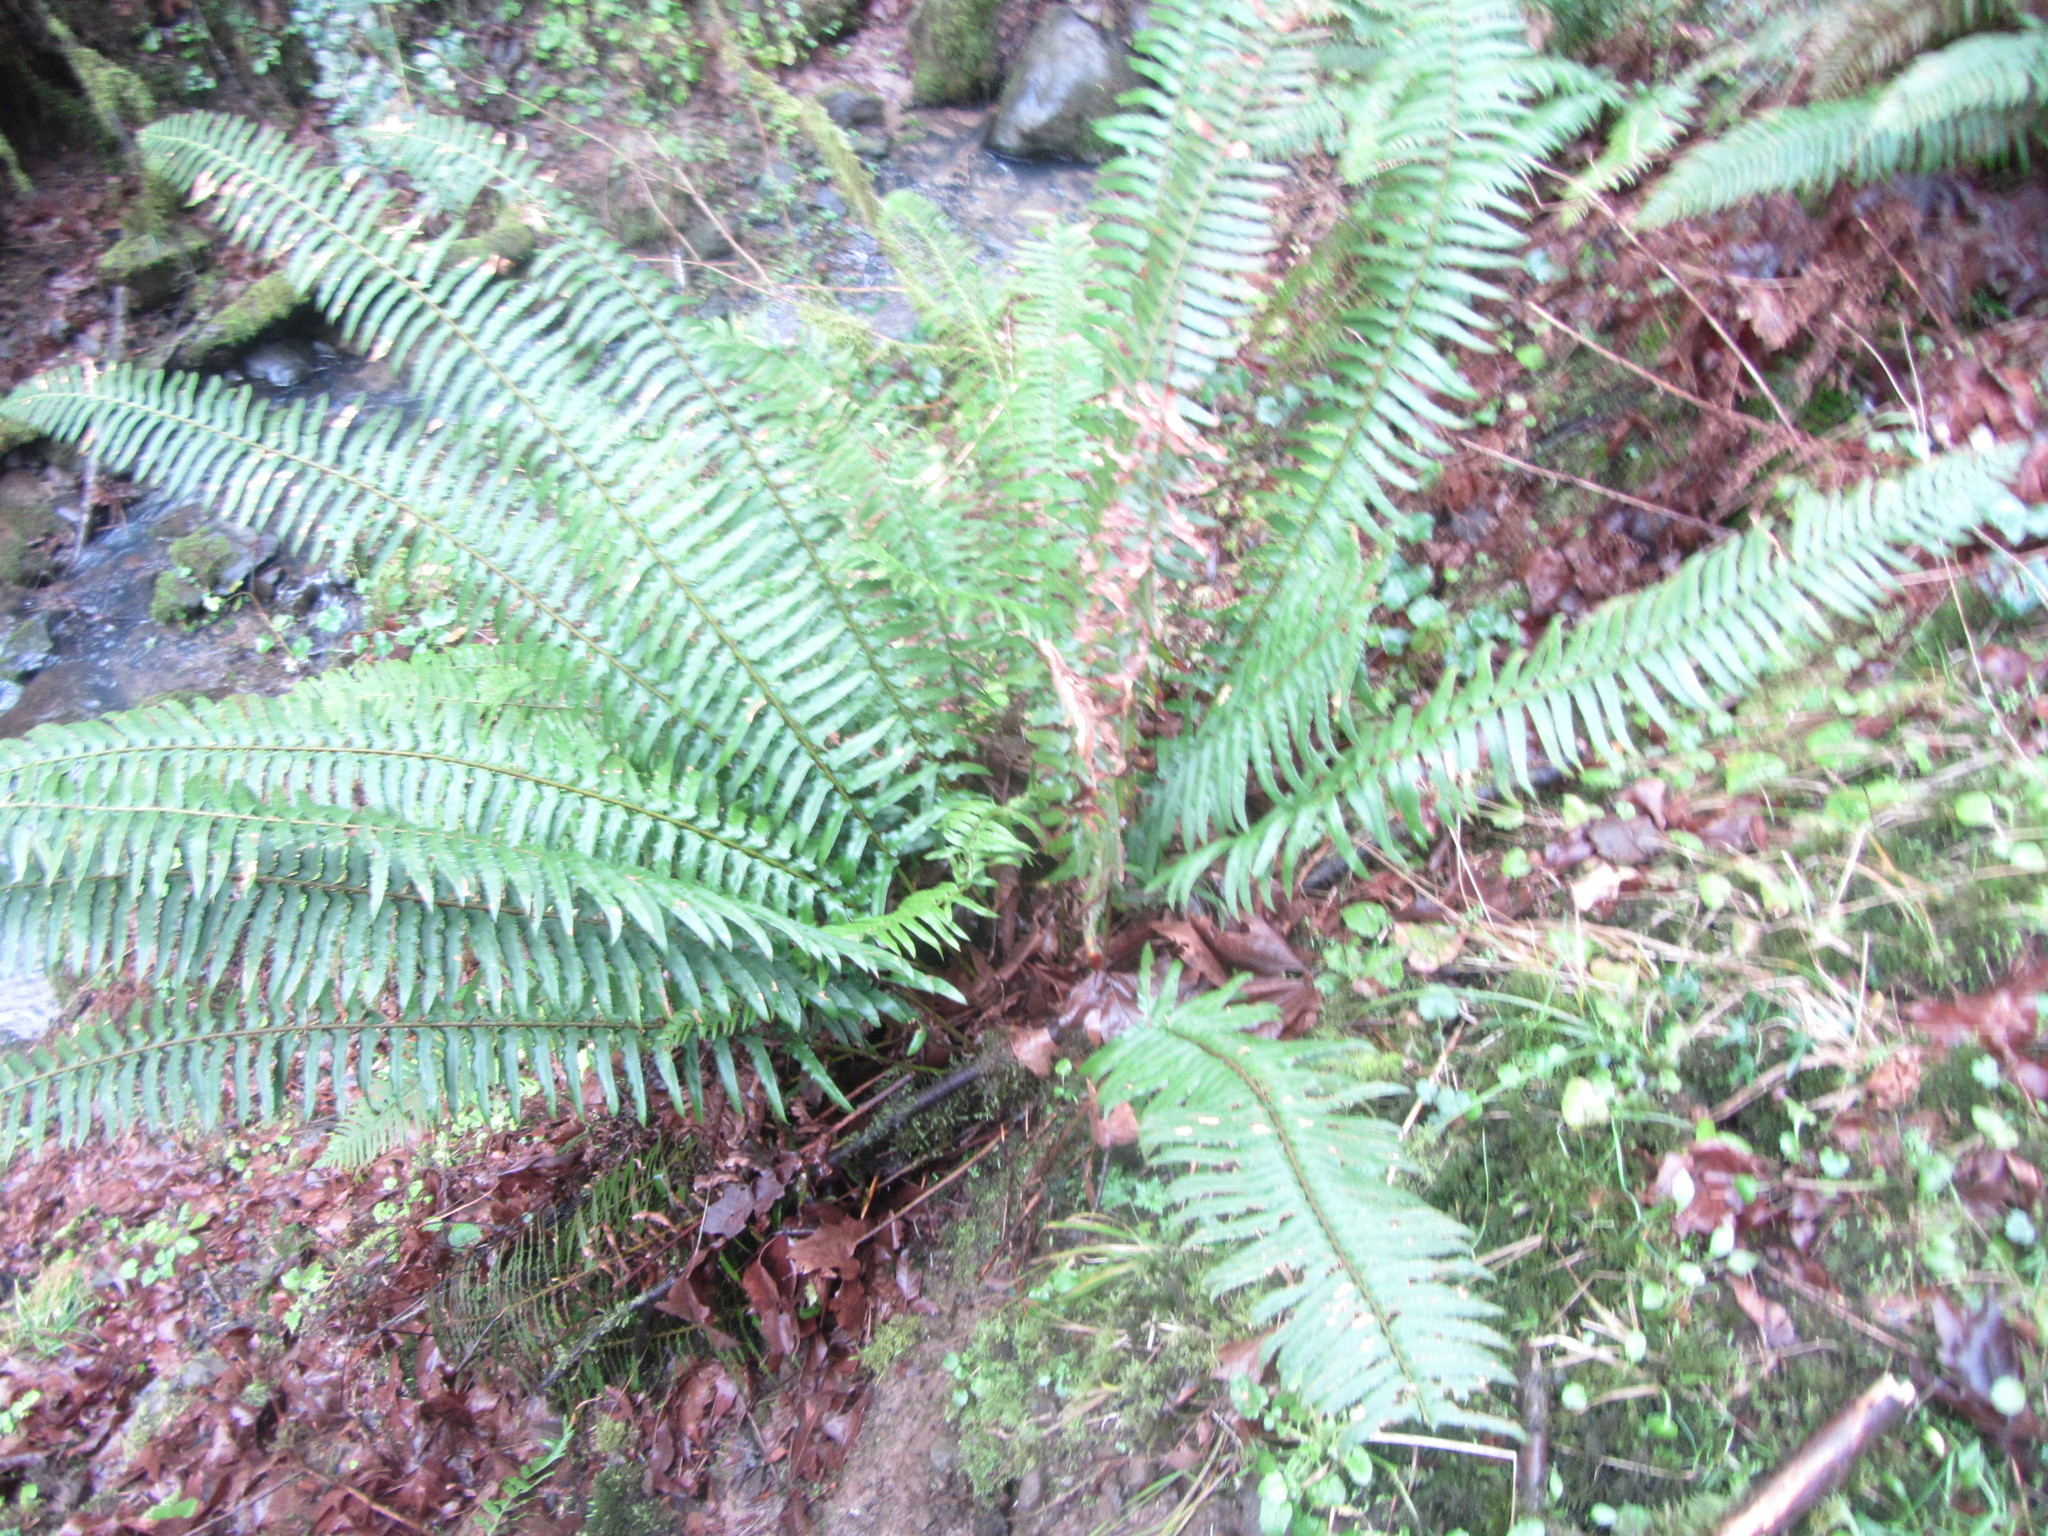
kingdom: Plantae
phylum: Tracheophyta
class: Polypodiopsida
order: Polypodiales
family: Dryopteridaceae
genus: Polystichum
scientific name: Polystichum munitum
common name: Western sword-fern
